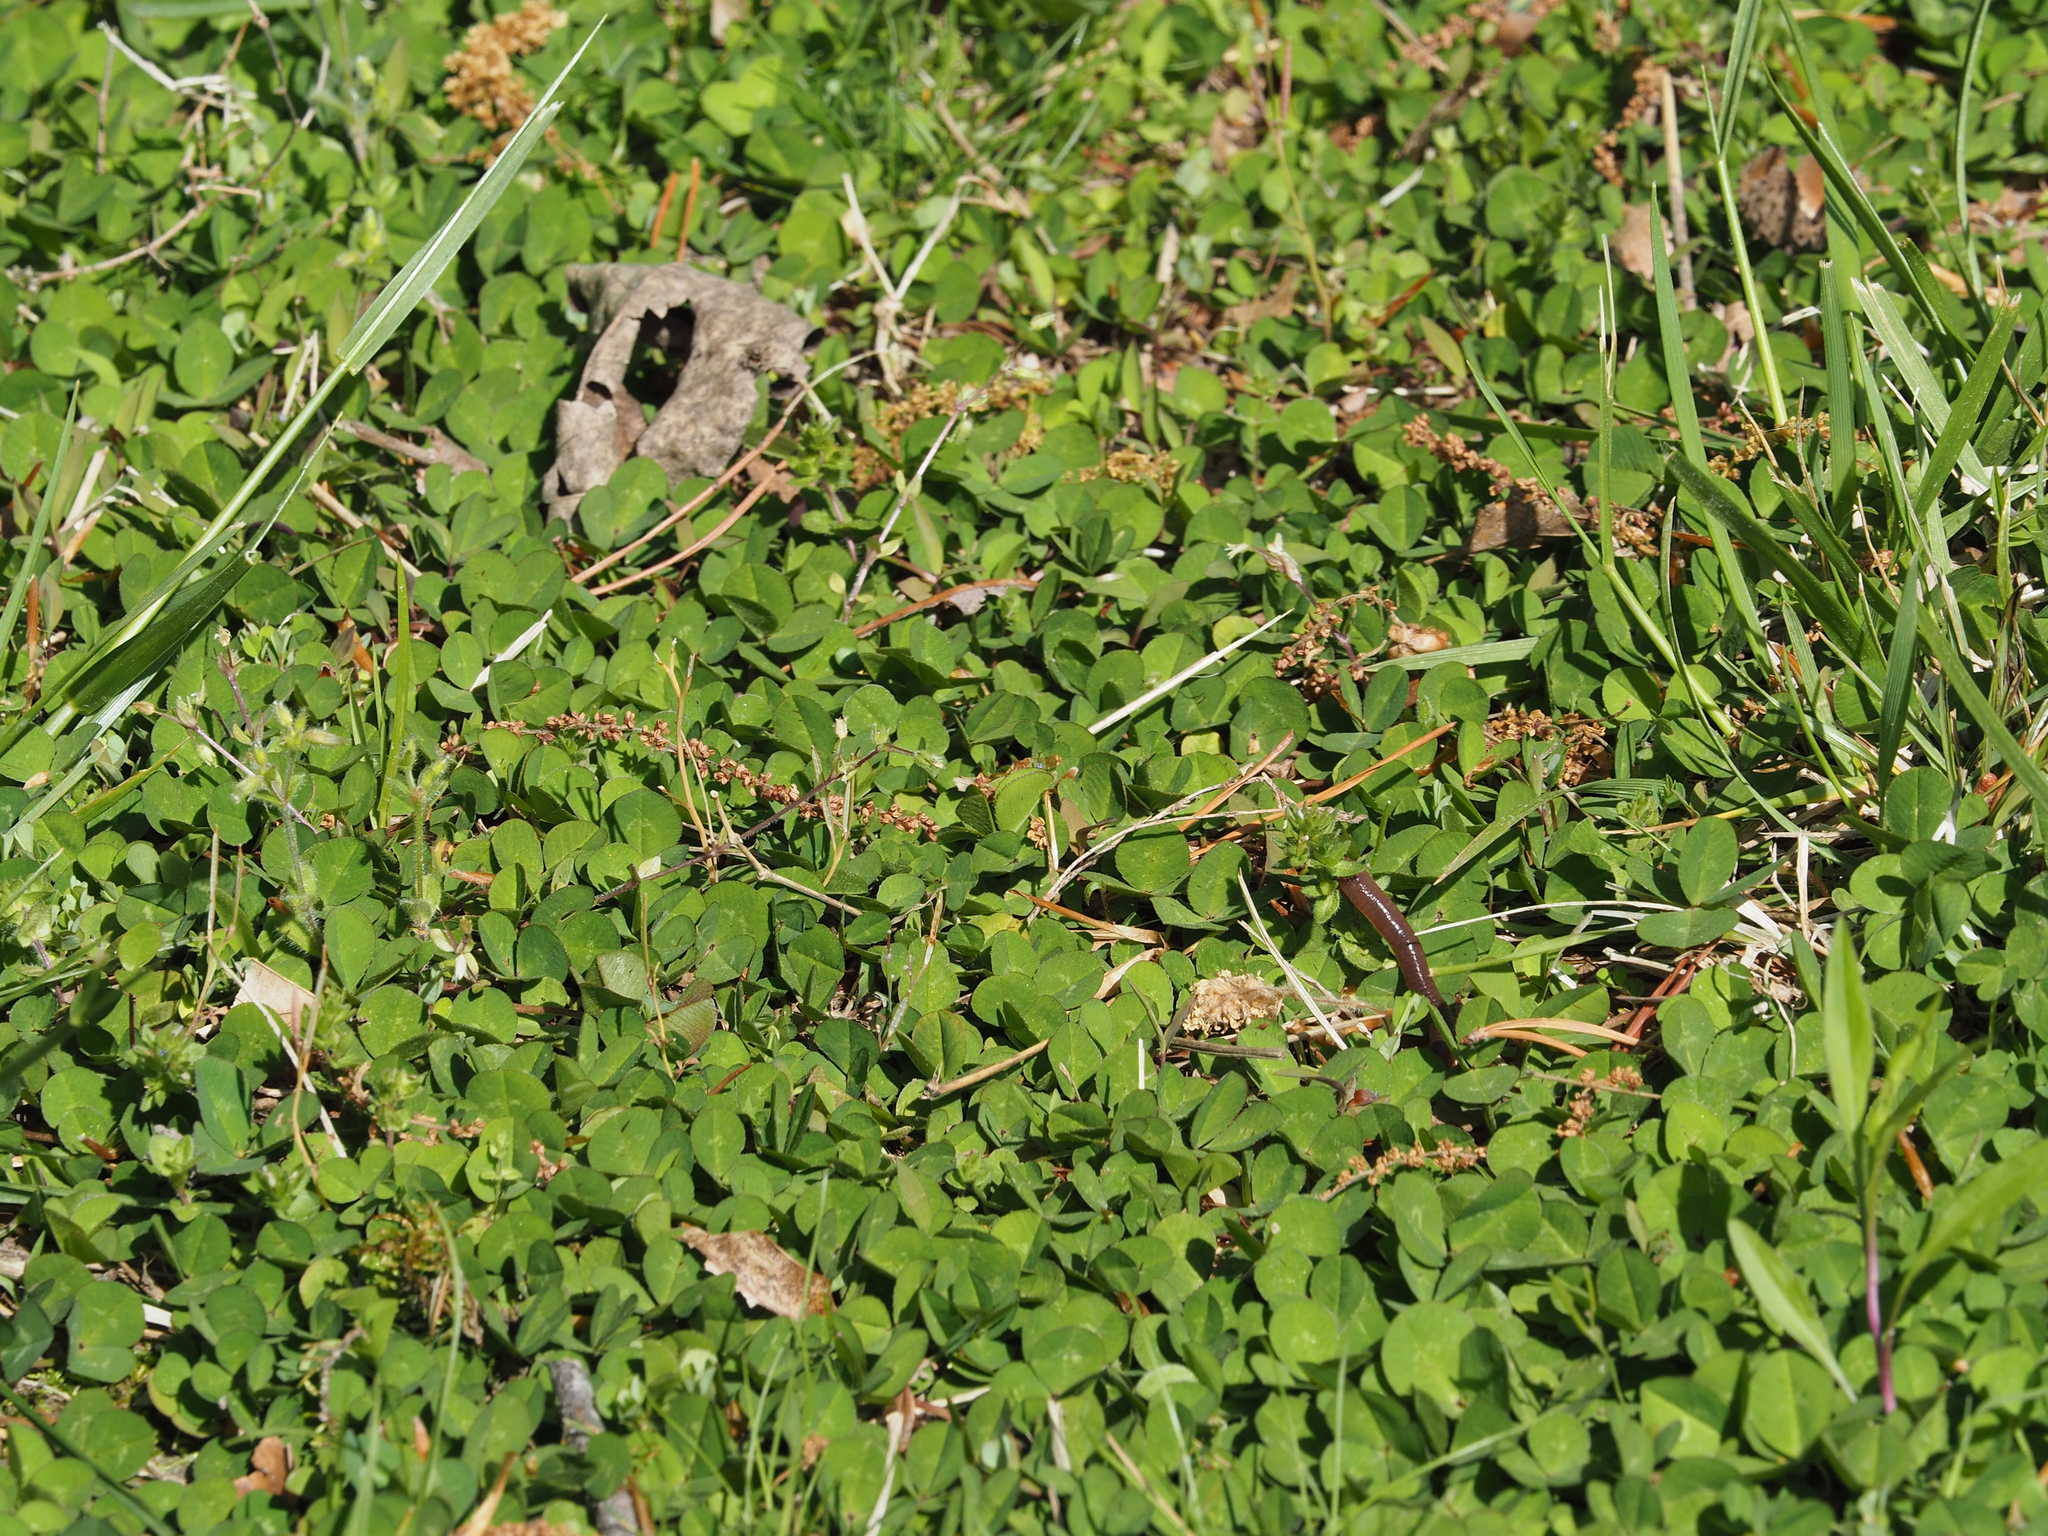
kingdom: Plantae
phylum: Tracheophyta
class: Magnoliopsida
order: Fabales
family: Fabaceae
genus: Trifolium
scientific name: Trifolium repens
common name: White clover
